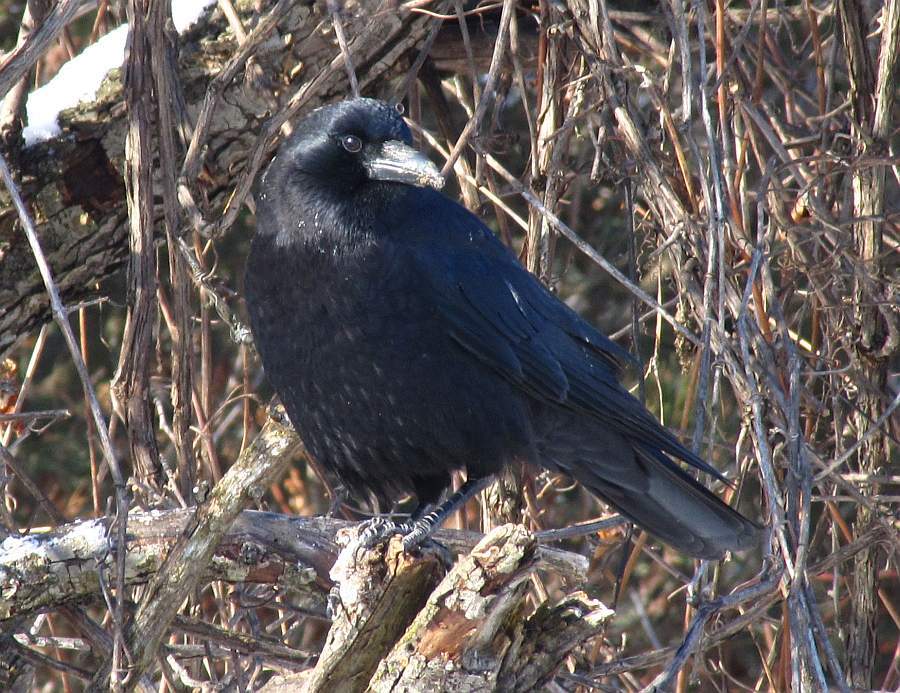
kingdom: Animalia
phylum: Chordata
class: Aves
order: Passeriformes
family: Corvidae
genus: Corvus
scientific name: Corvus brachyrhynchos
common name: American crow
